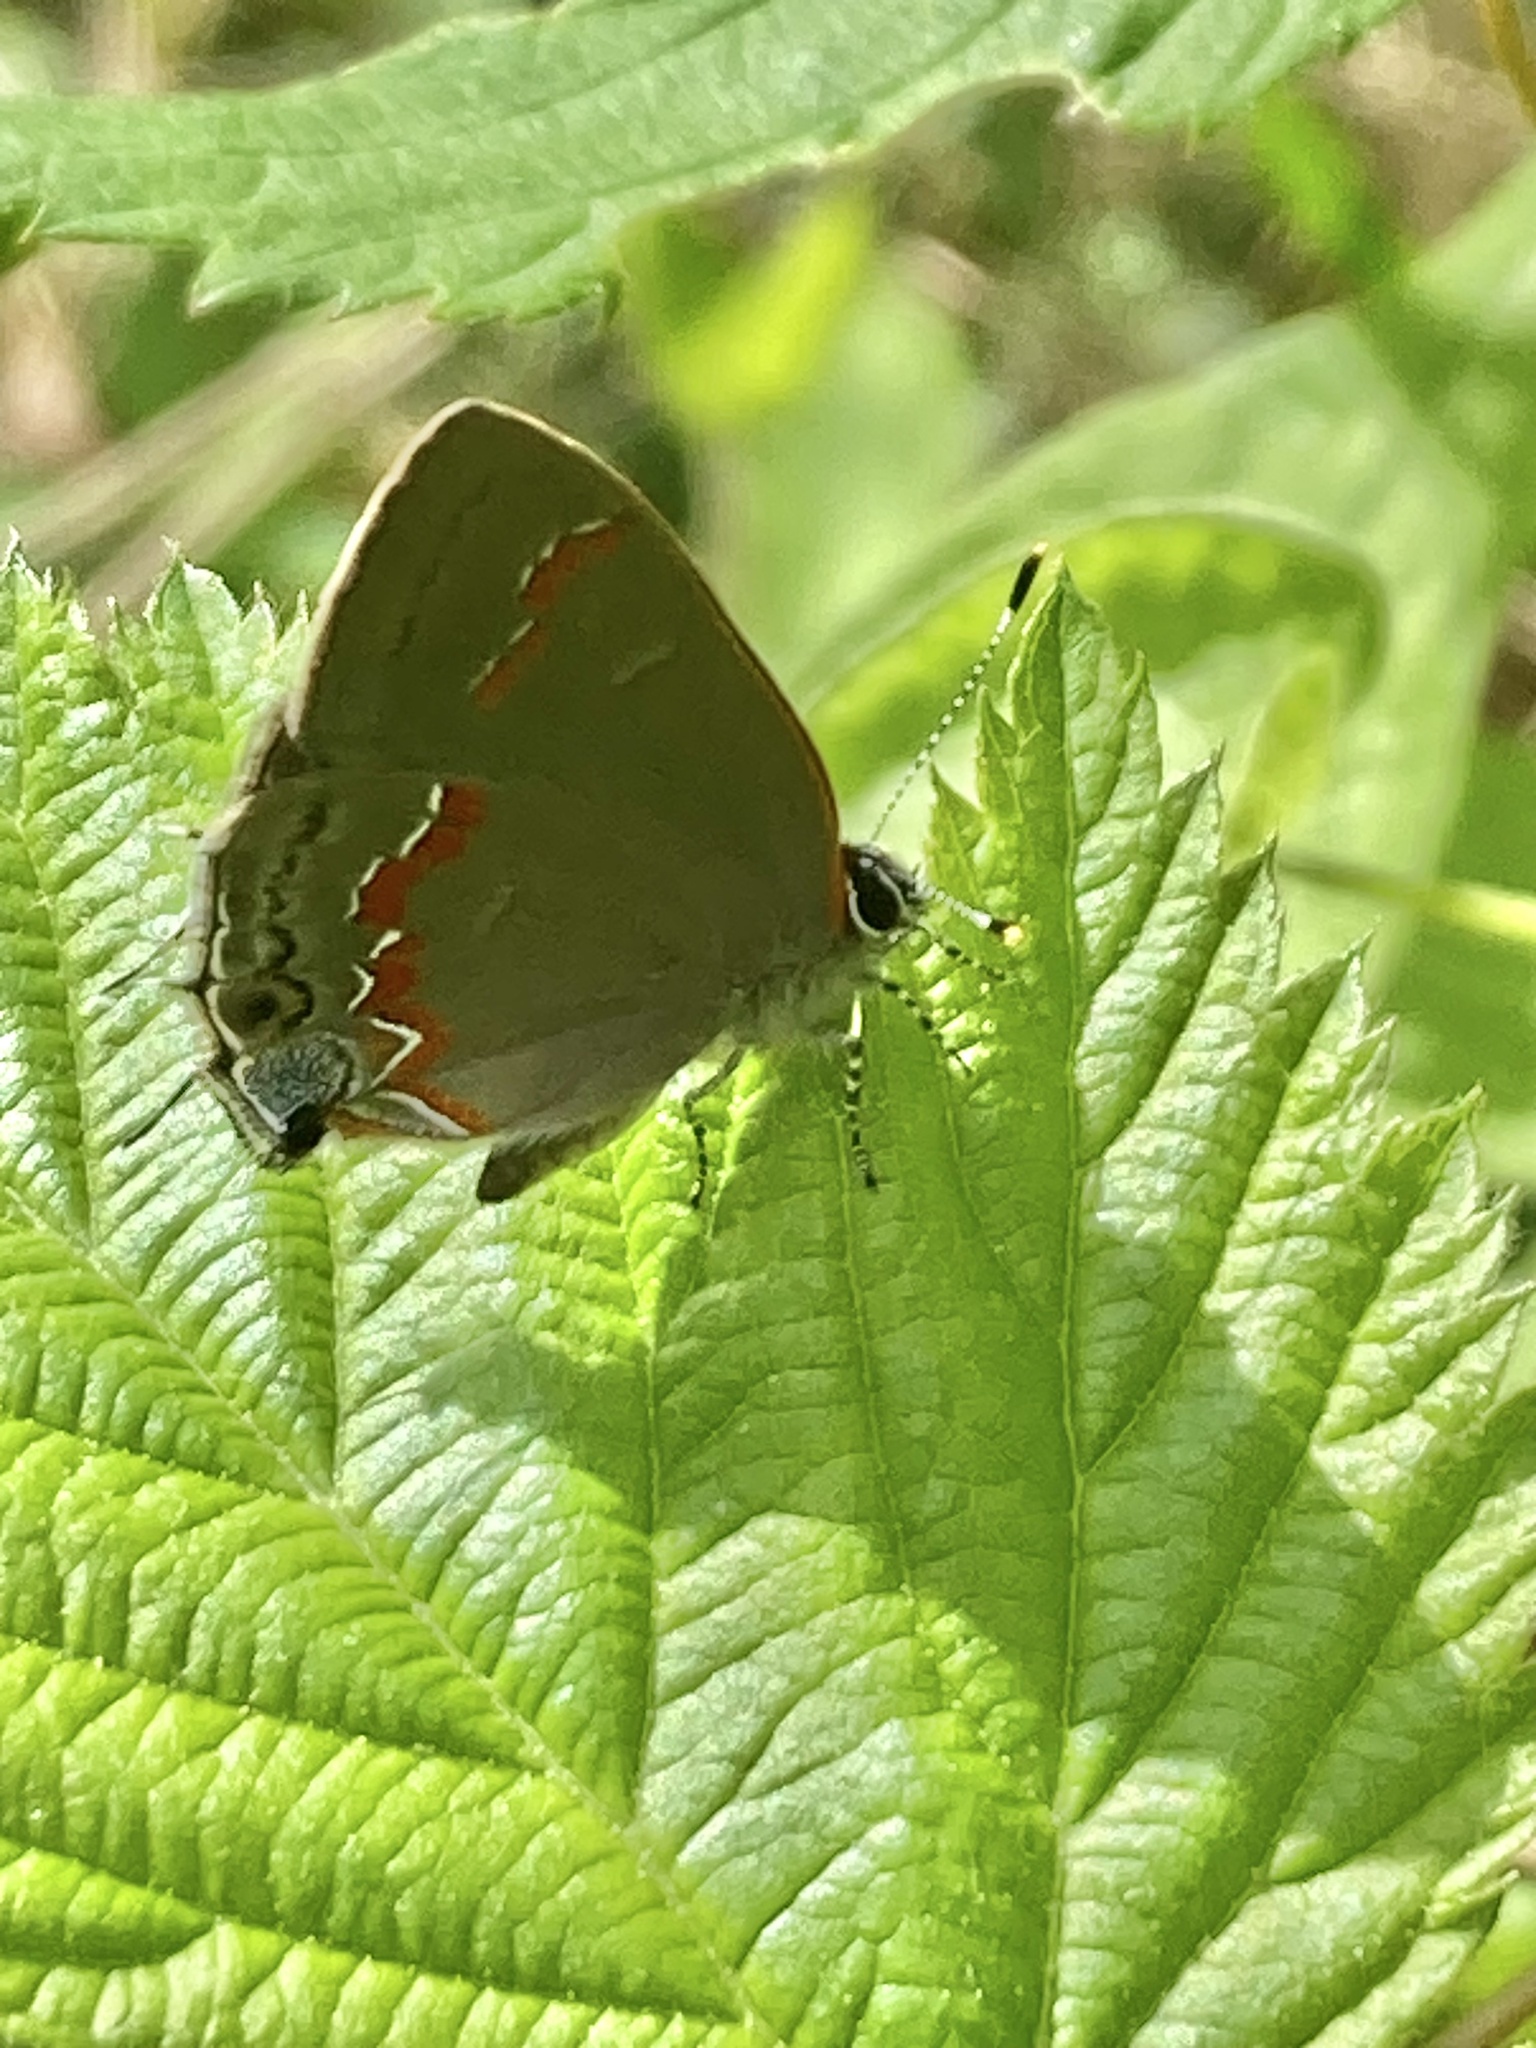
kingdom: Animalia
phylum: Arthropoda
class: Insecta
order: Lepidoptera
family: Lycaenidae
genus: Calycopis
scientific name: Calycopis cecrops
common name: Red-banded hairstreak
